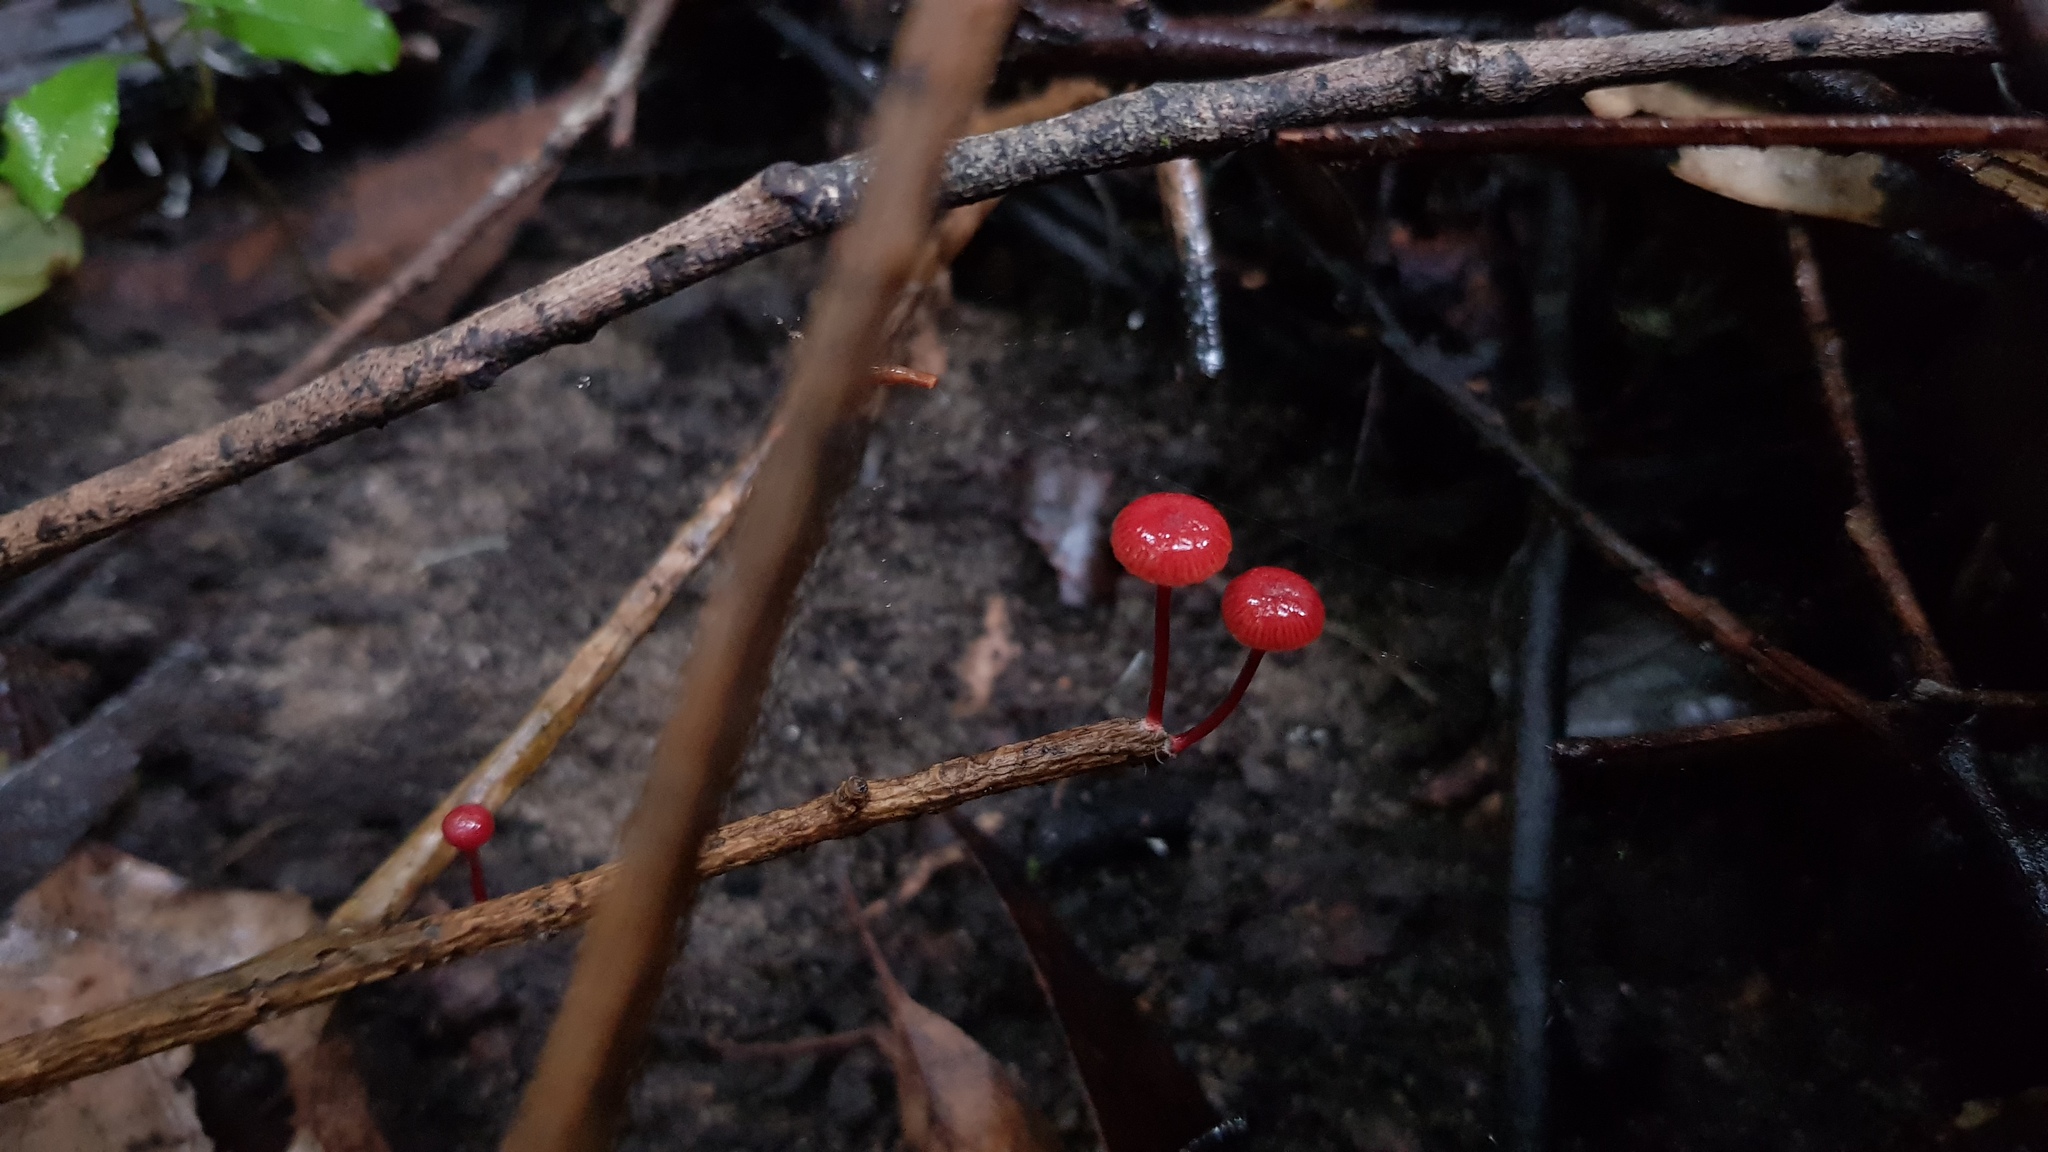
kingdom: Fungi
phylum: Basidiomycota
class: Agaricomycetes
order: Agaricales
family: Mycenaceae
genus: Cruentomycena
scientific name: Cruentomycena viscidocruenta
